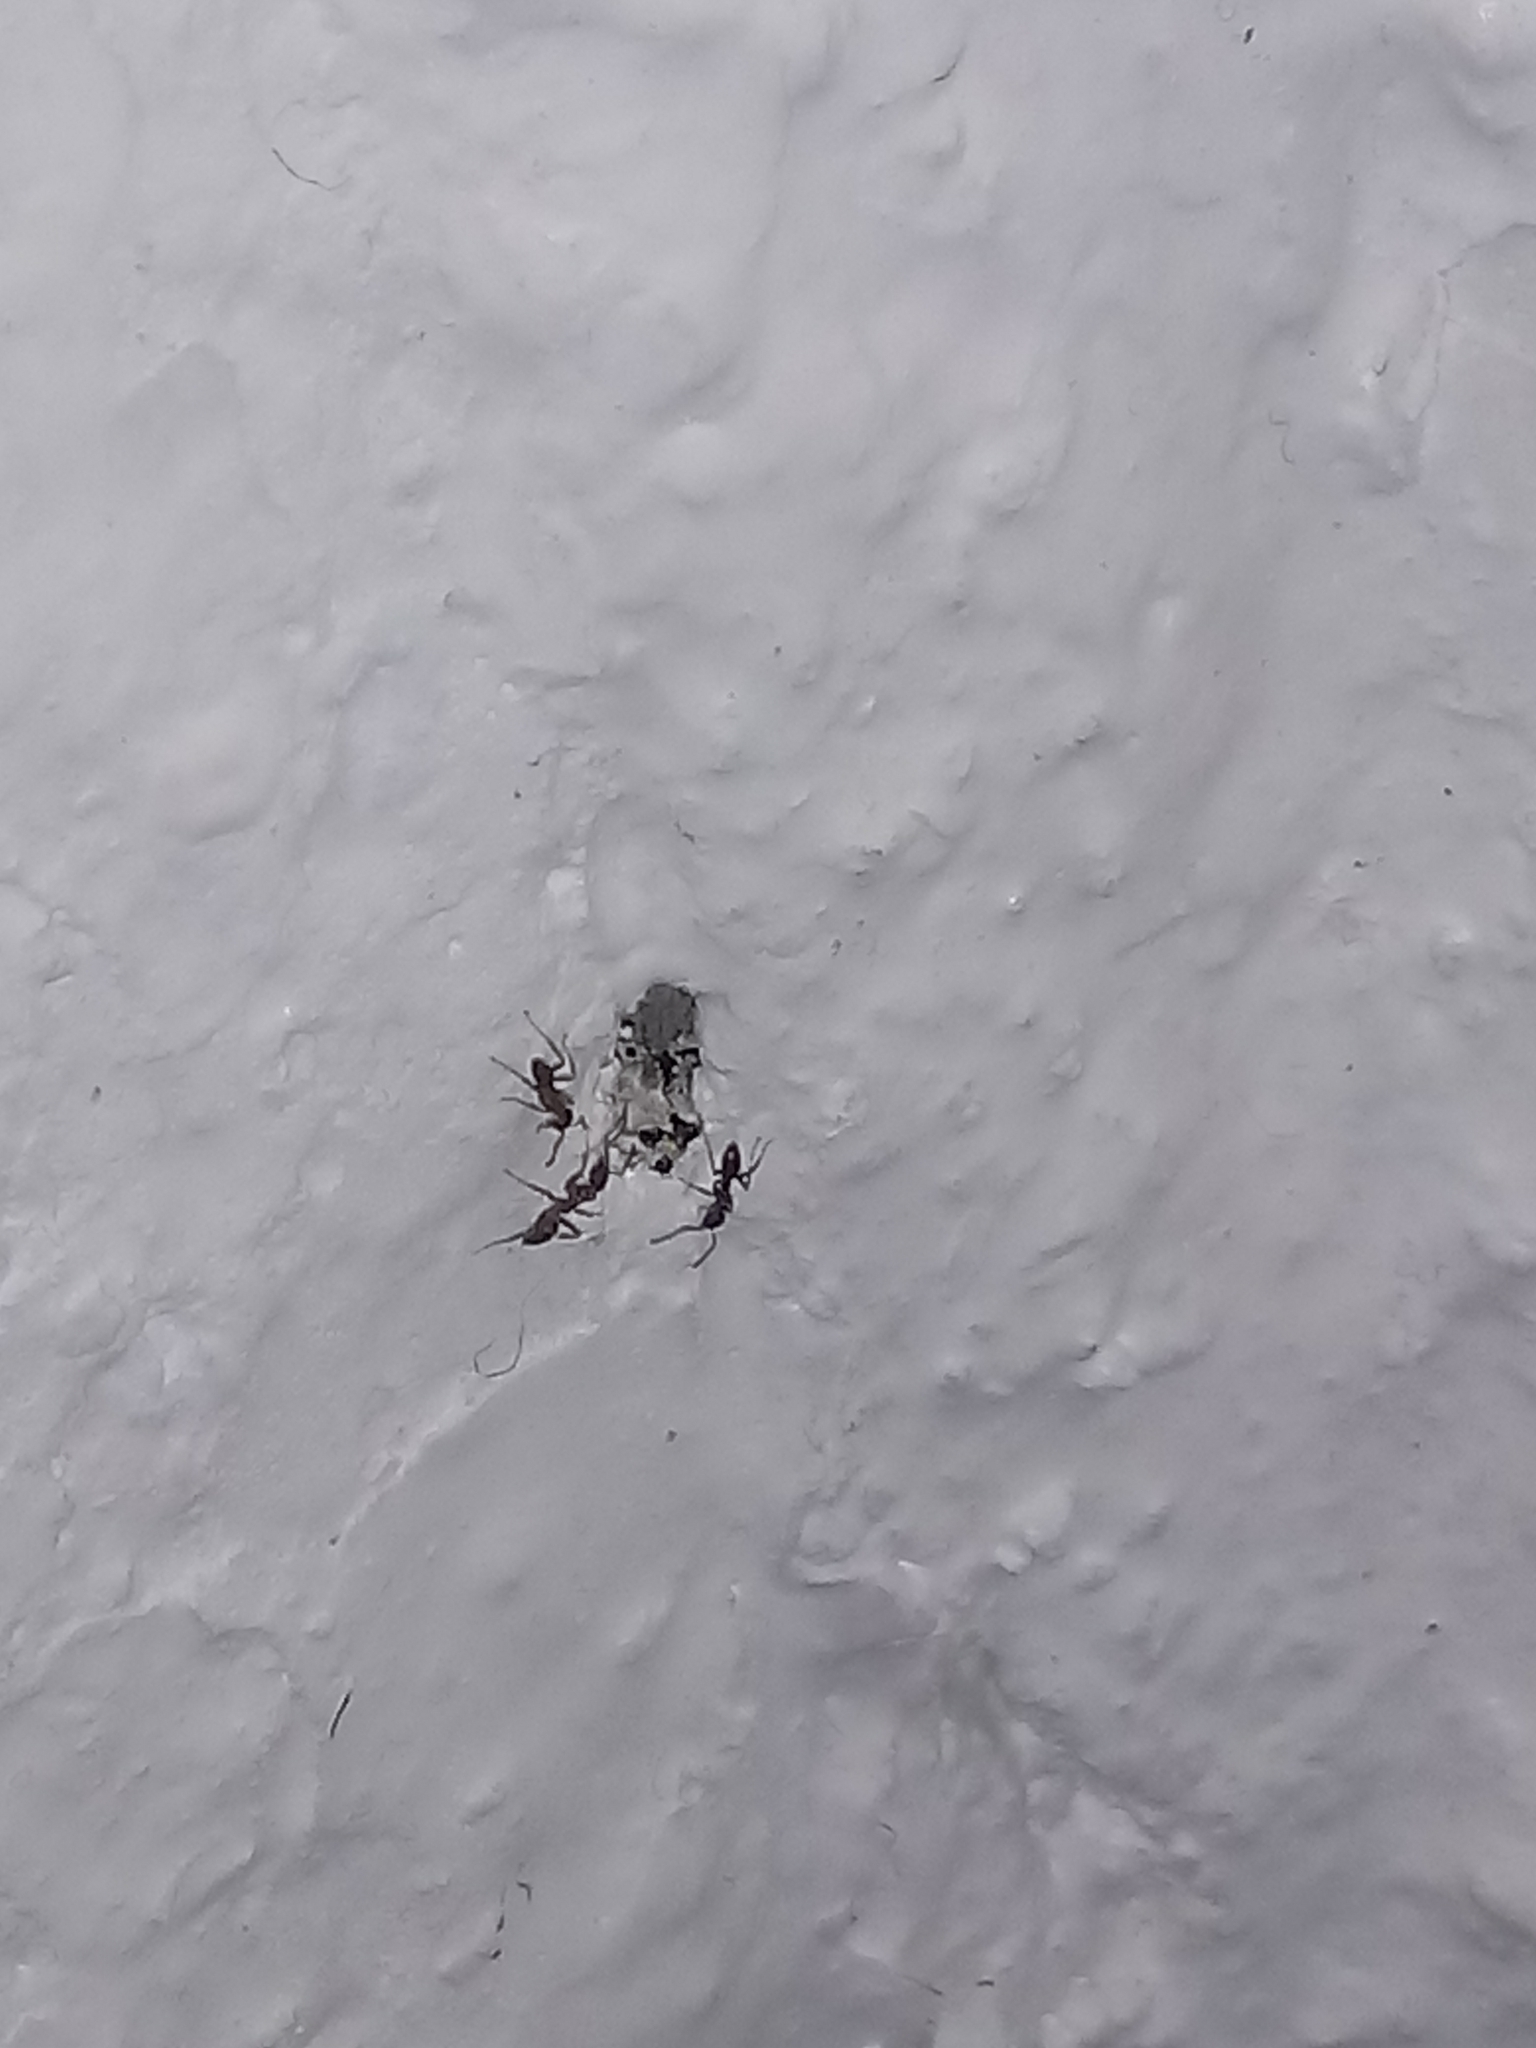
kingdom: Animalia
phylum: Arthropoda
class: Insecta
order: Hymenoptera
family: Formicidae
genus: Linepithema
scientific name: Linepithema humile
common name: Argentine ant
